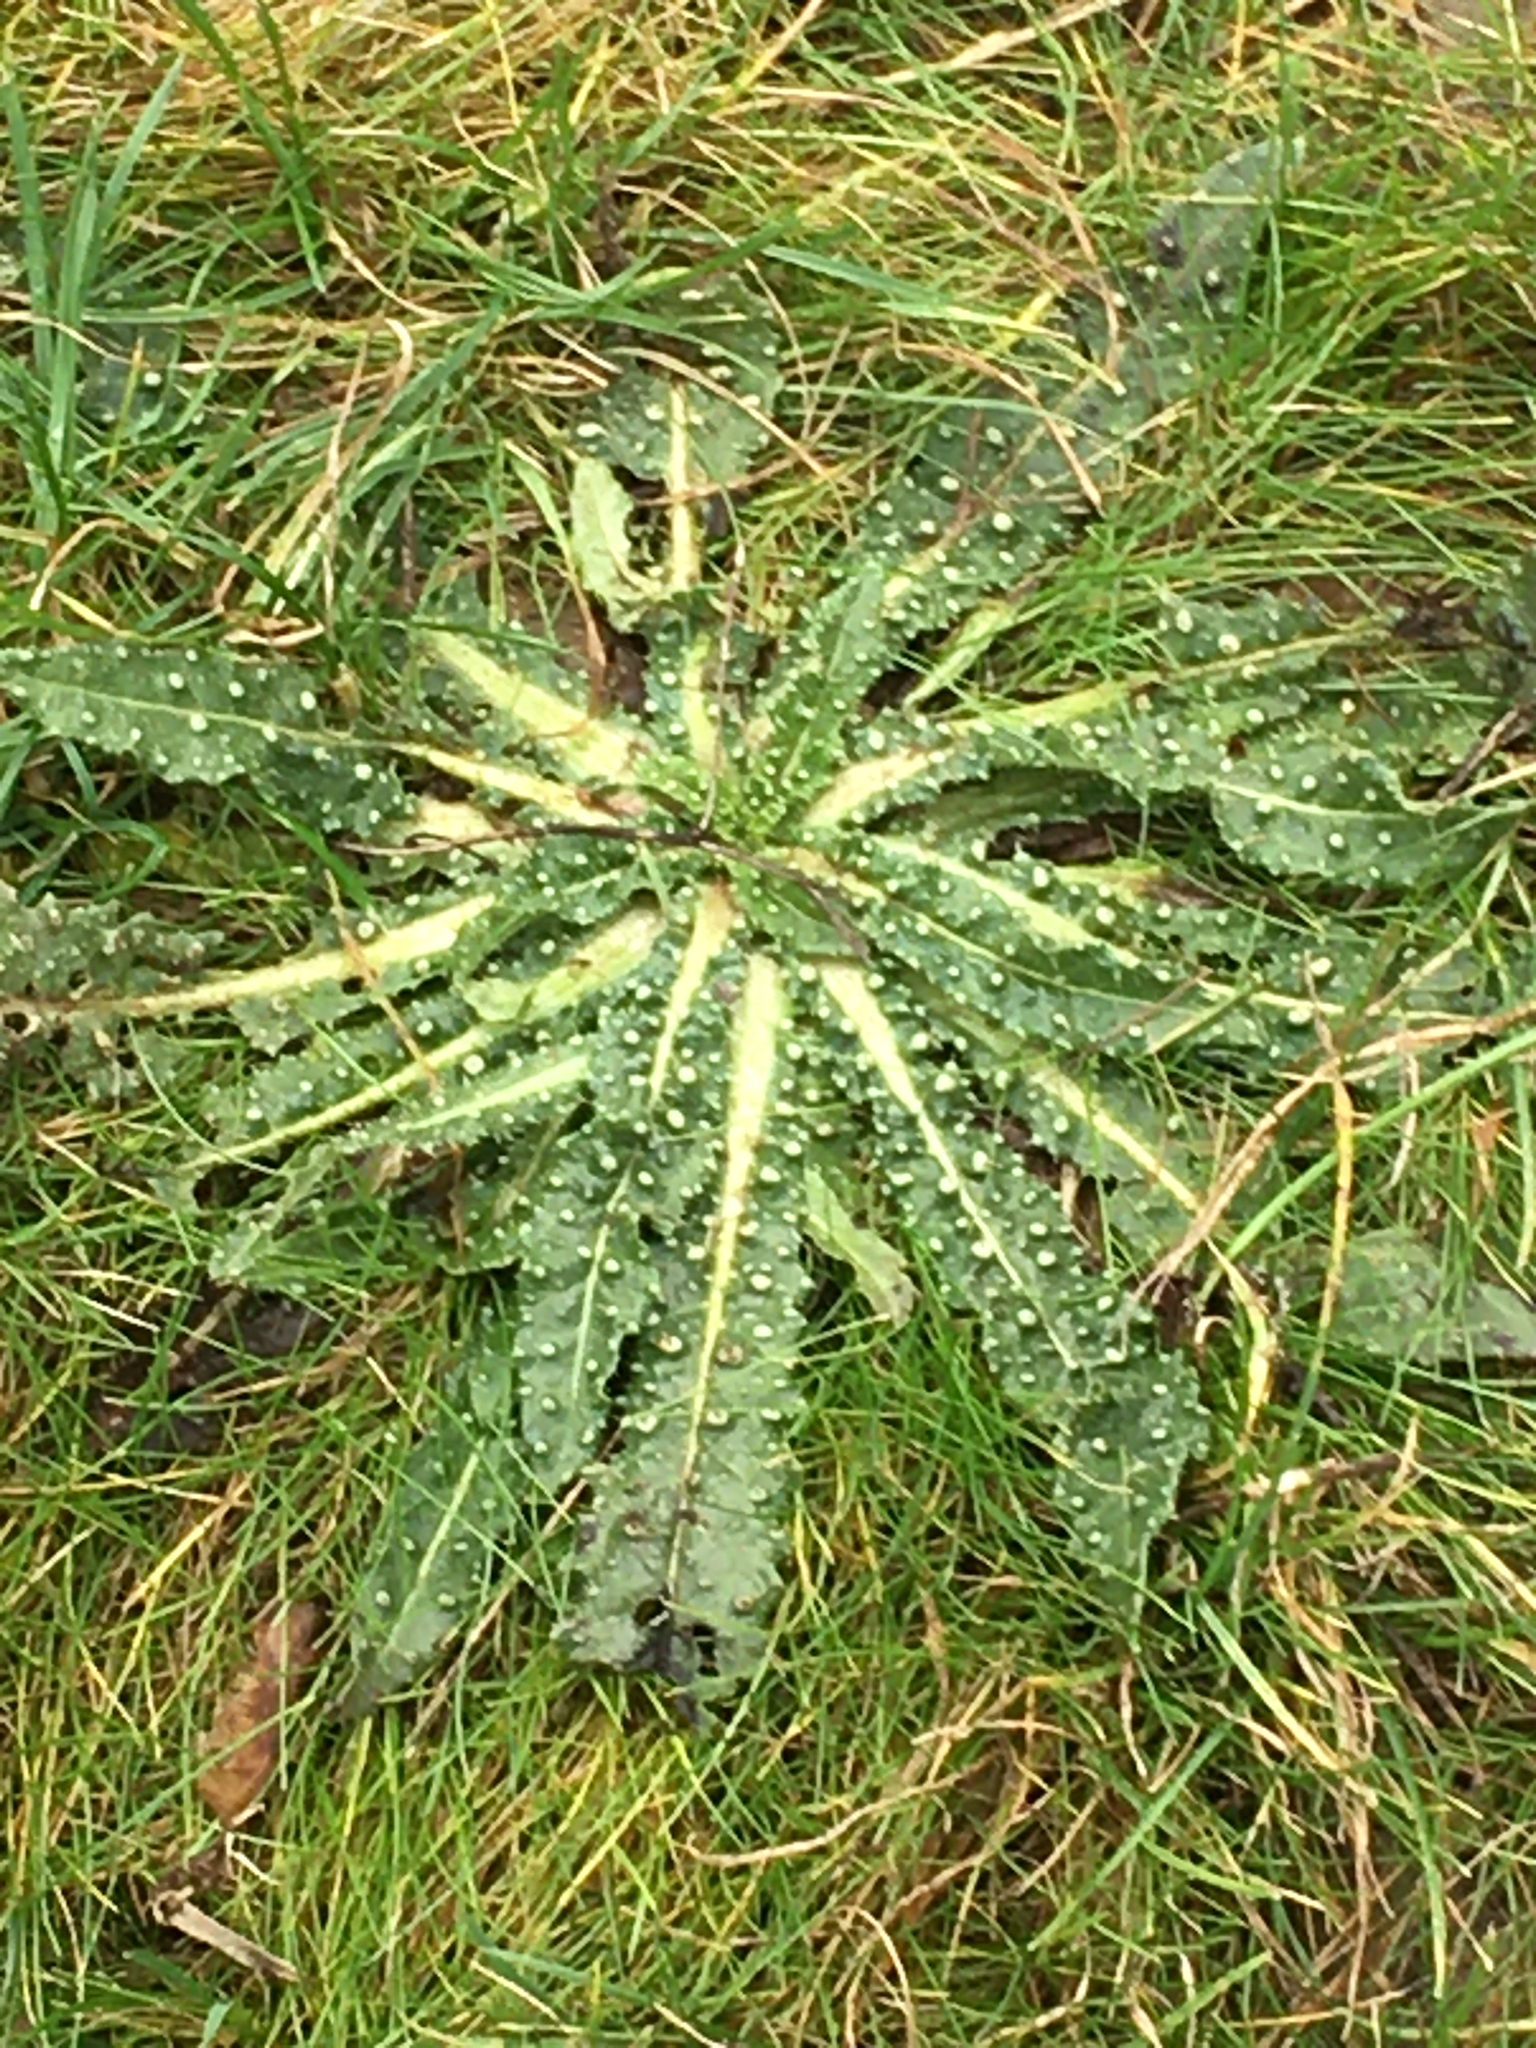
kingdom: Plantae
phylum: Tracheophyta
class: Magnoliopsida
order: Asterales
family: Asteraceae
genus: Helminthotheca
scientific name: Helminthotheca echioides
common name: Ox-tongue
